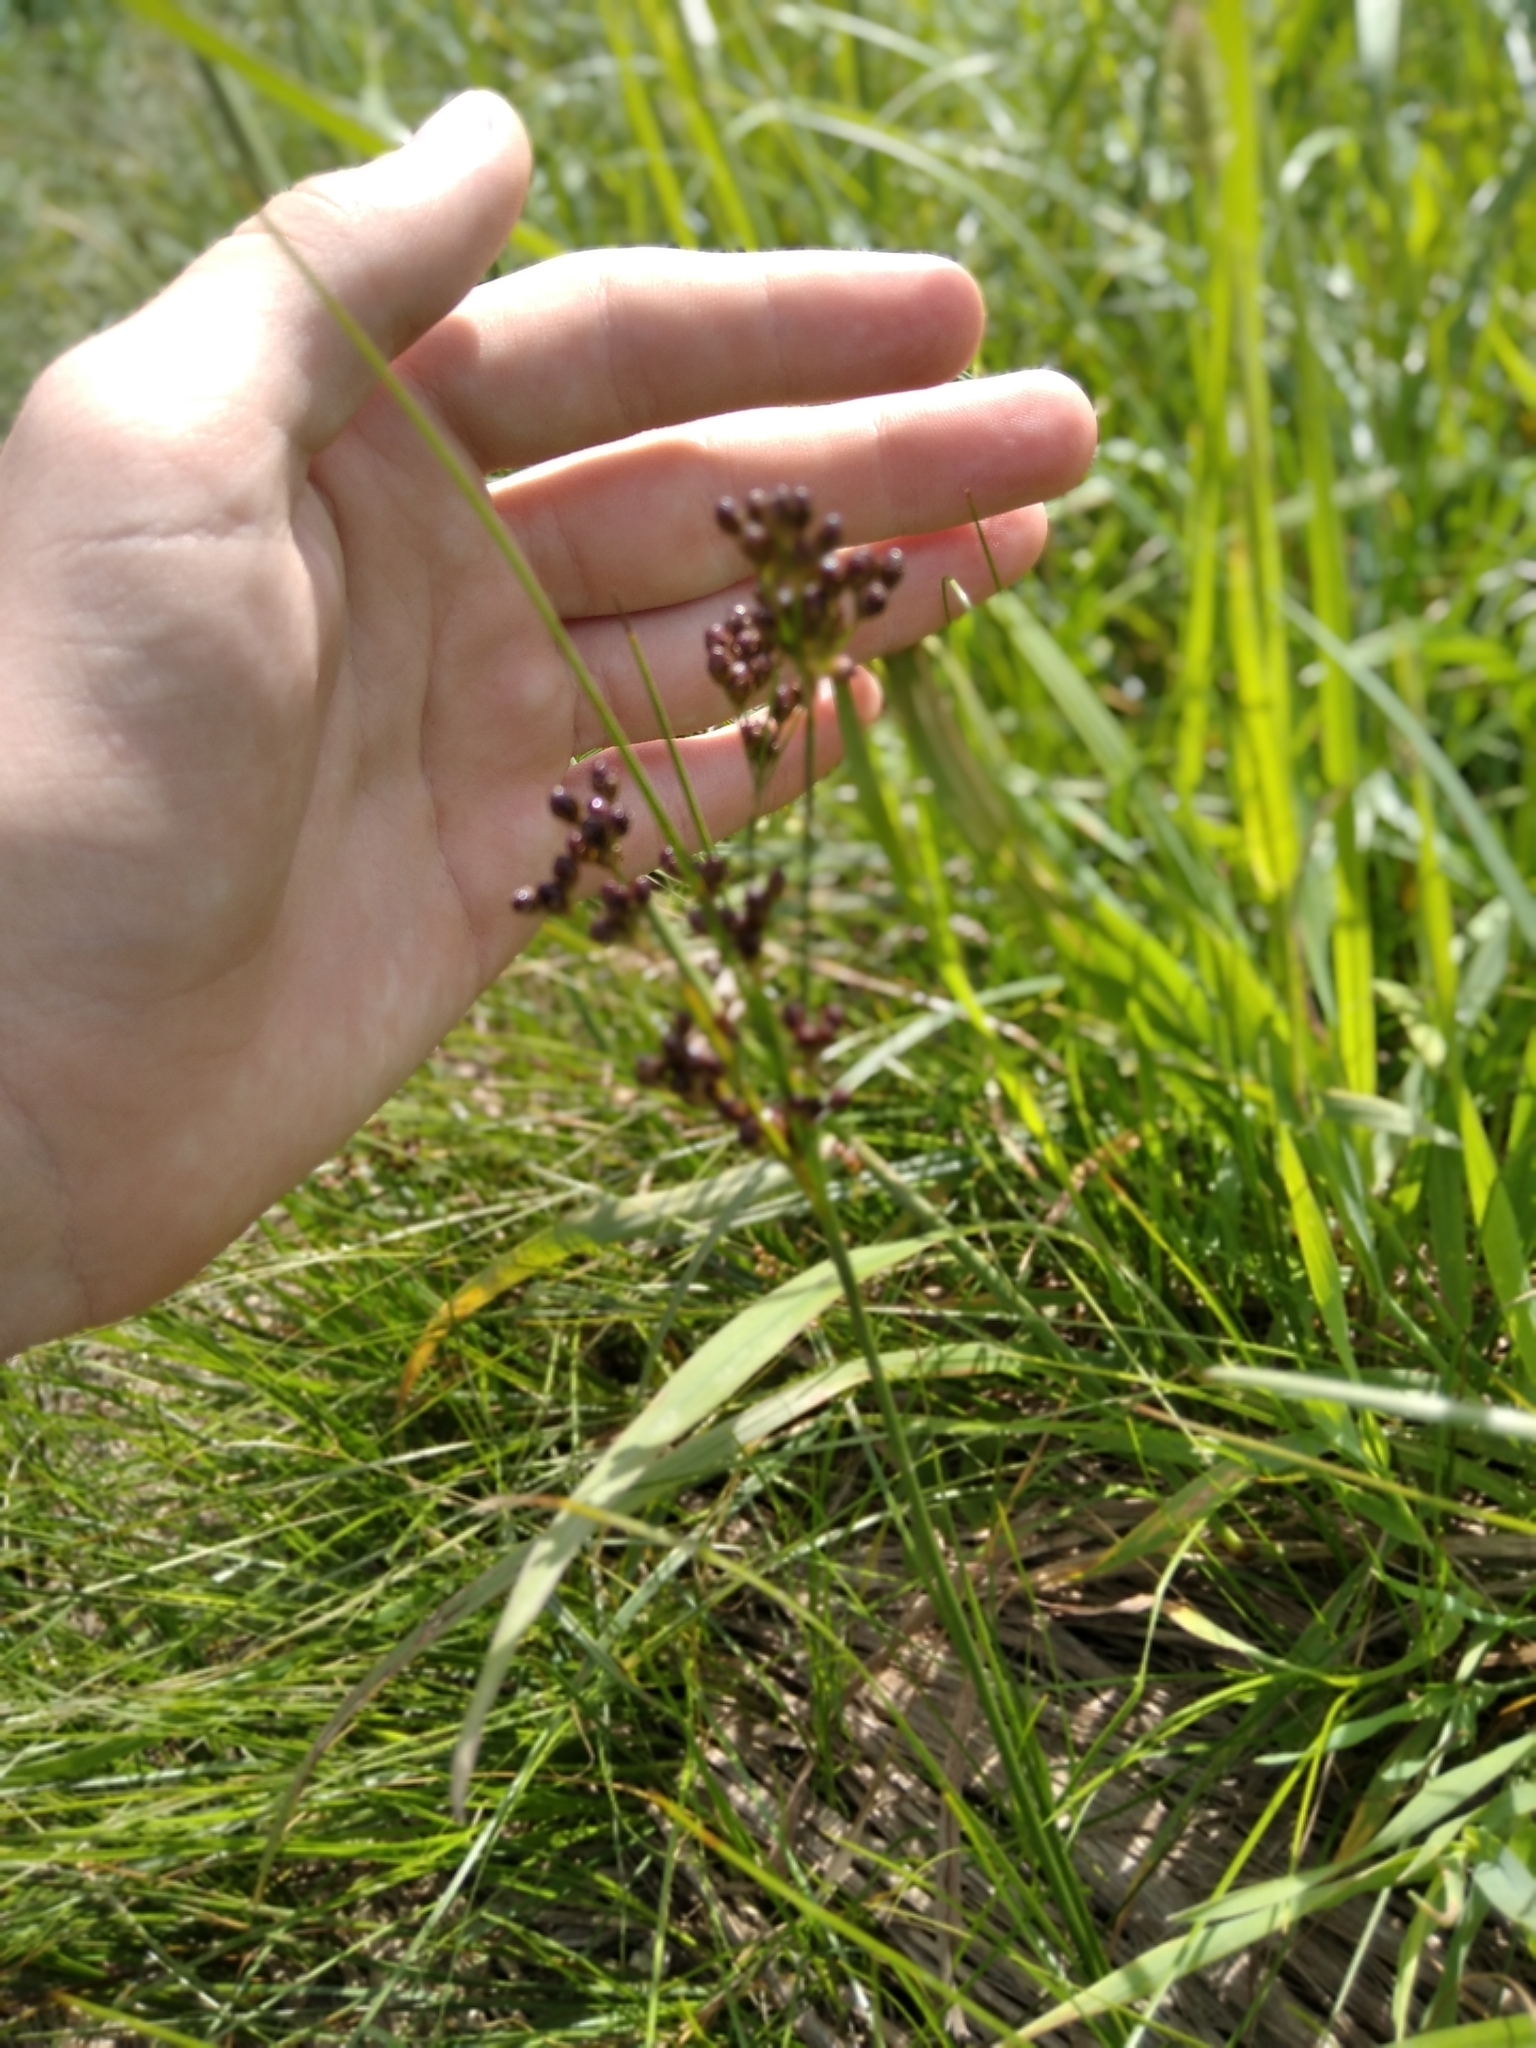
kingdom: Plantae
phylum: Tracheophyta
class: Liliopsida
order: Poales
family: Juncaceae
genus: Juncus
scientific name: Juncus compressus
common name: Round-fruited rush
